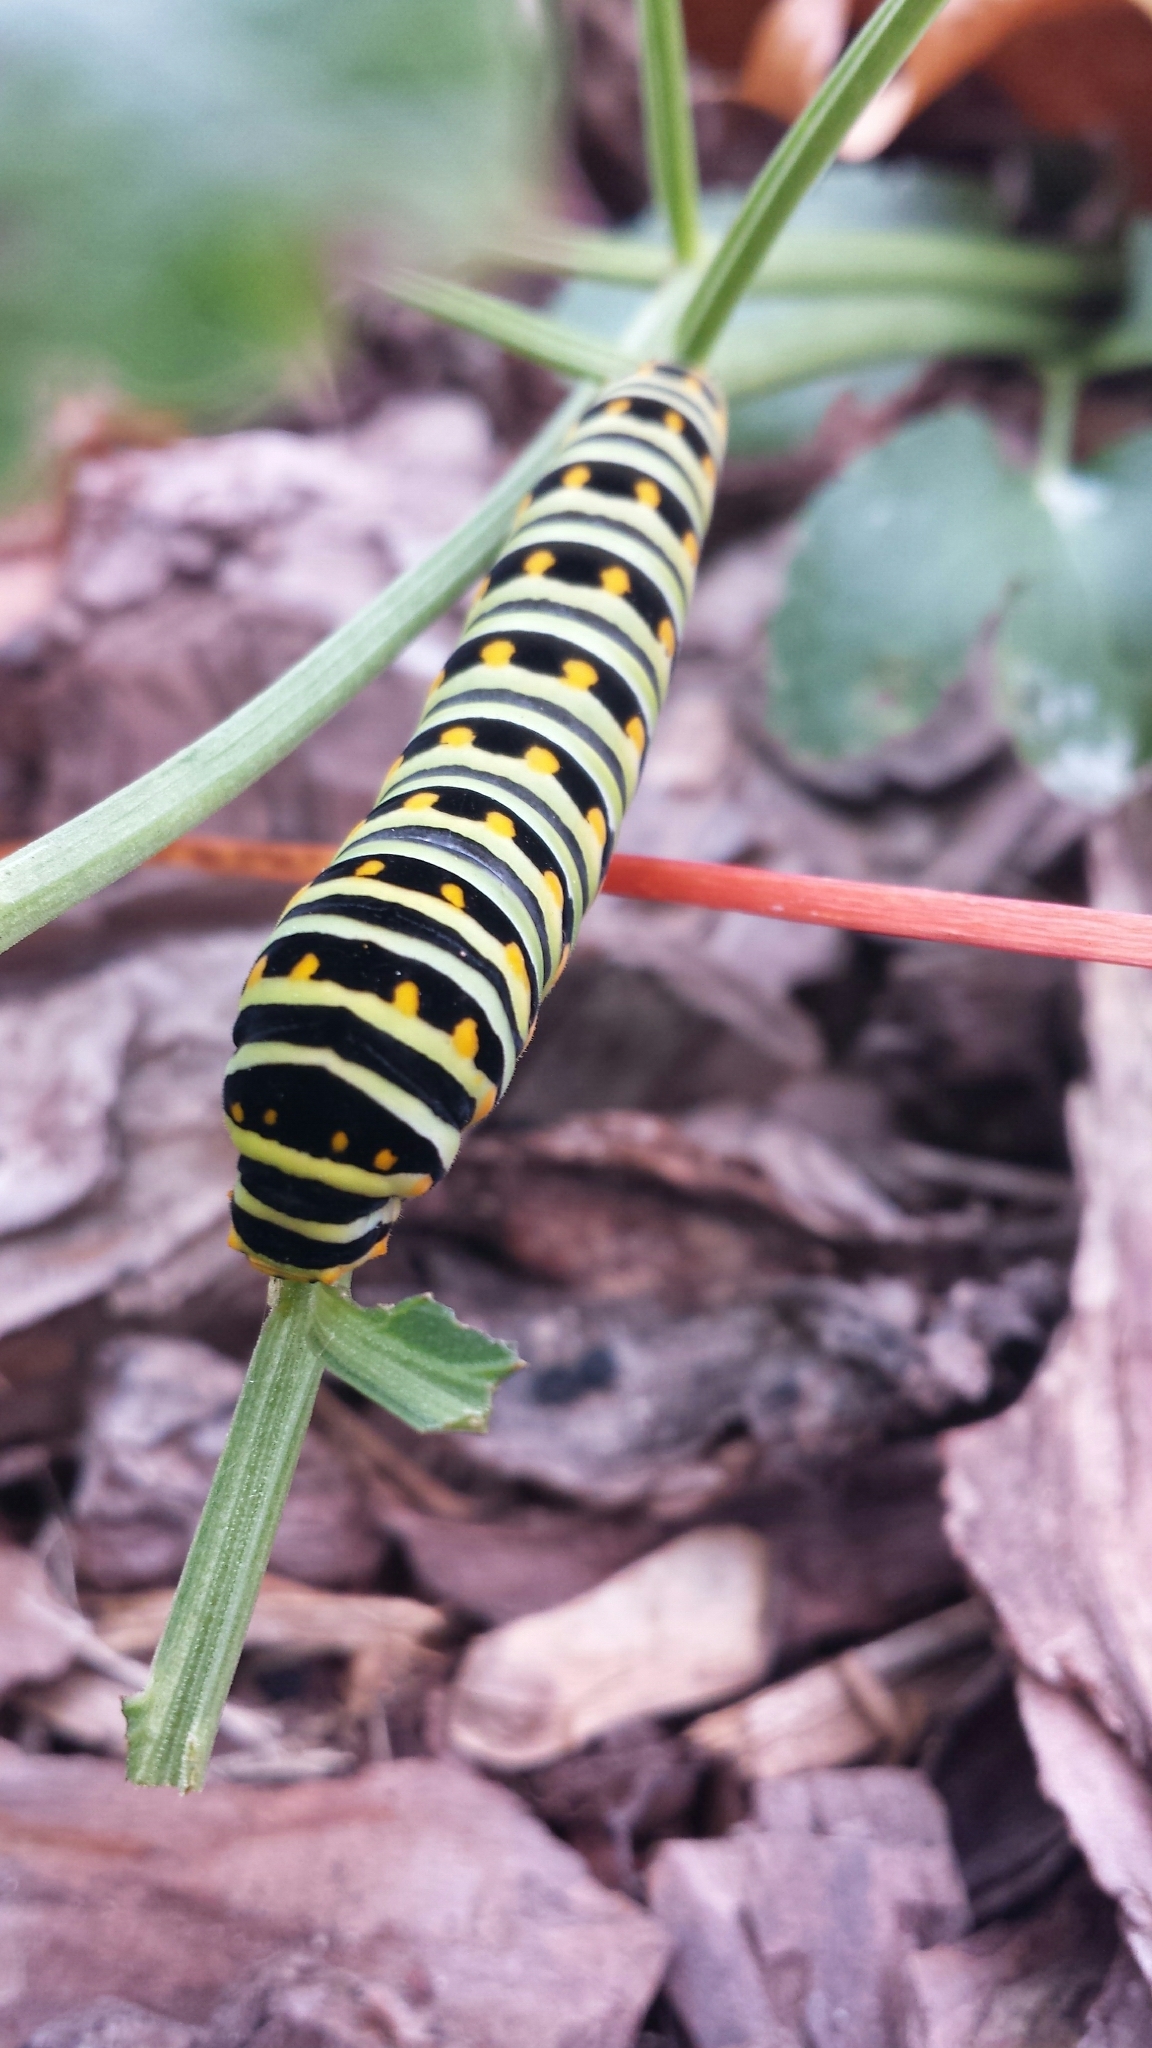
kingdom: Animalia
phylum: Arthropoda
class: Insecta
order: Lepidoptera
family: Papilionidae
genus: Papilio
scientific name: Papilio polyxenes
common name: Black swallowtail
